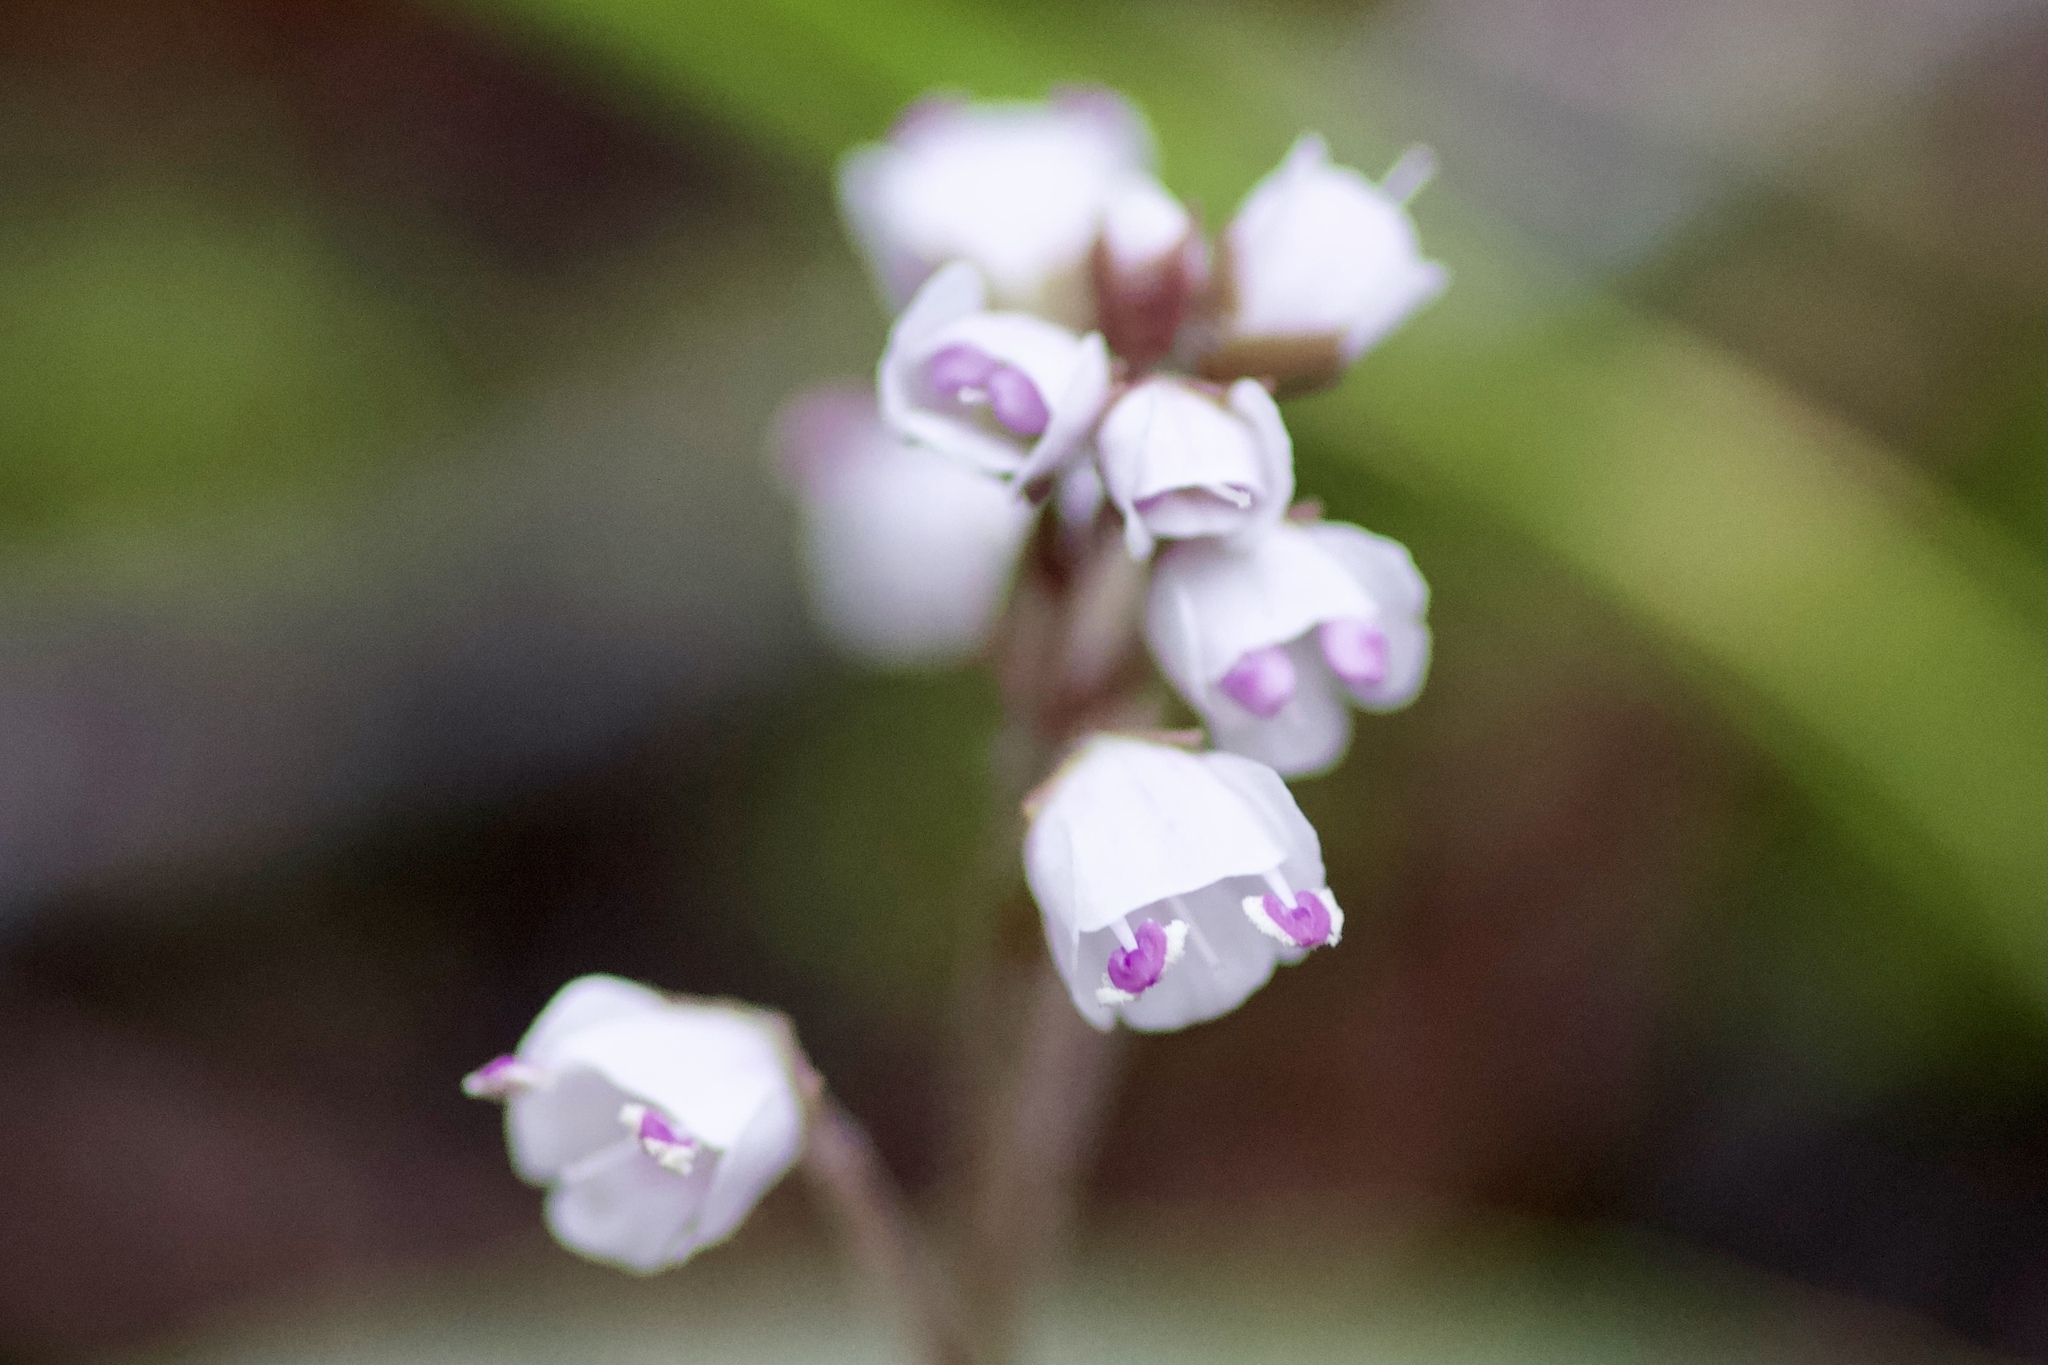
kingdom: Plantae
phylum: Tracheophyta
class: Magnoliopsida
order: Lamiales
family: Plantaginaceae
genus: Synthyris
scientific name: Synthyris cordata
